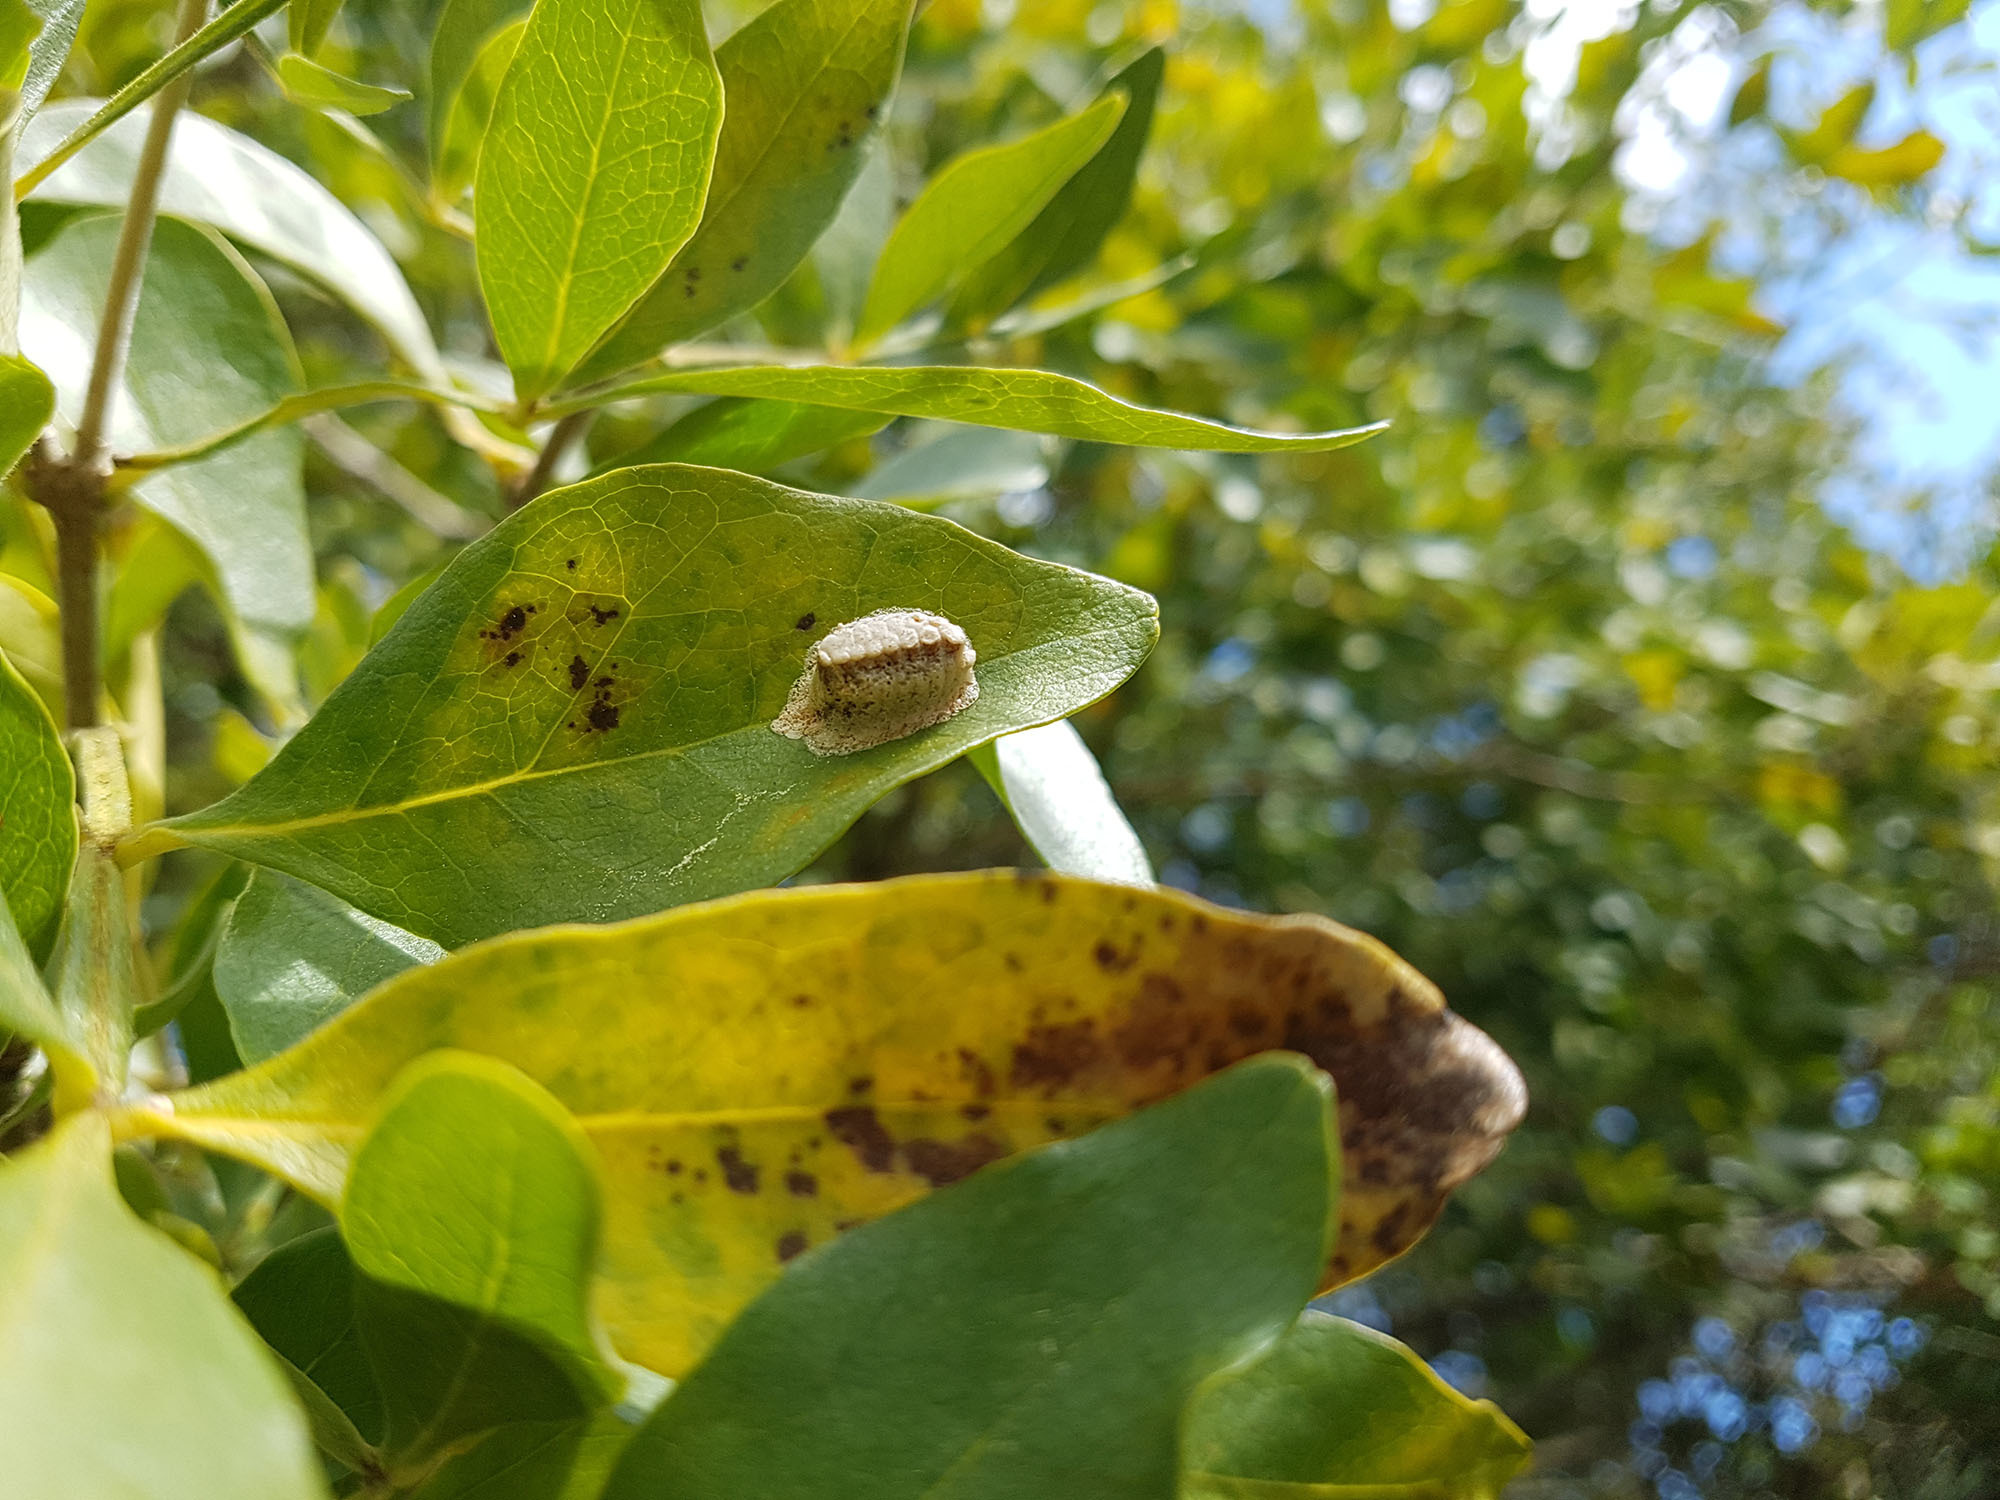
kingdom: Animalia
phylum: Arthropoda
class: Insecta
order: Mantodea
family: Mantidae
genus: Orthodera
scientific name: Orthodera novaezealandiae
